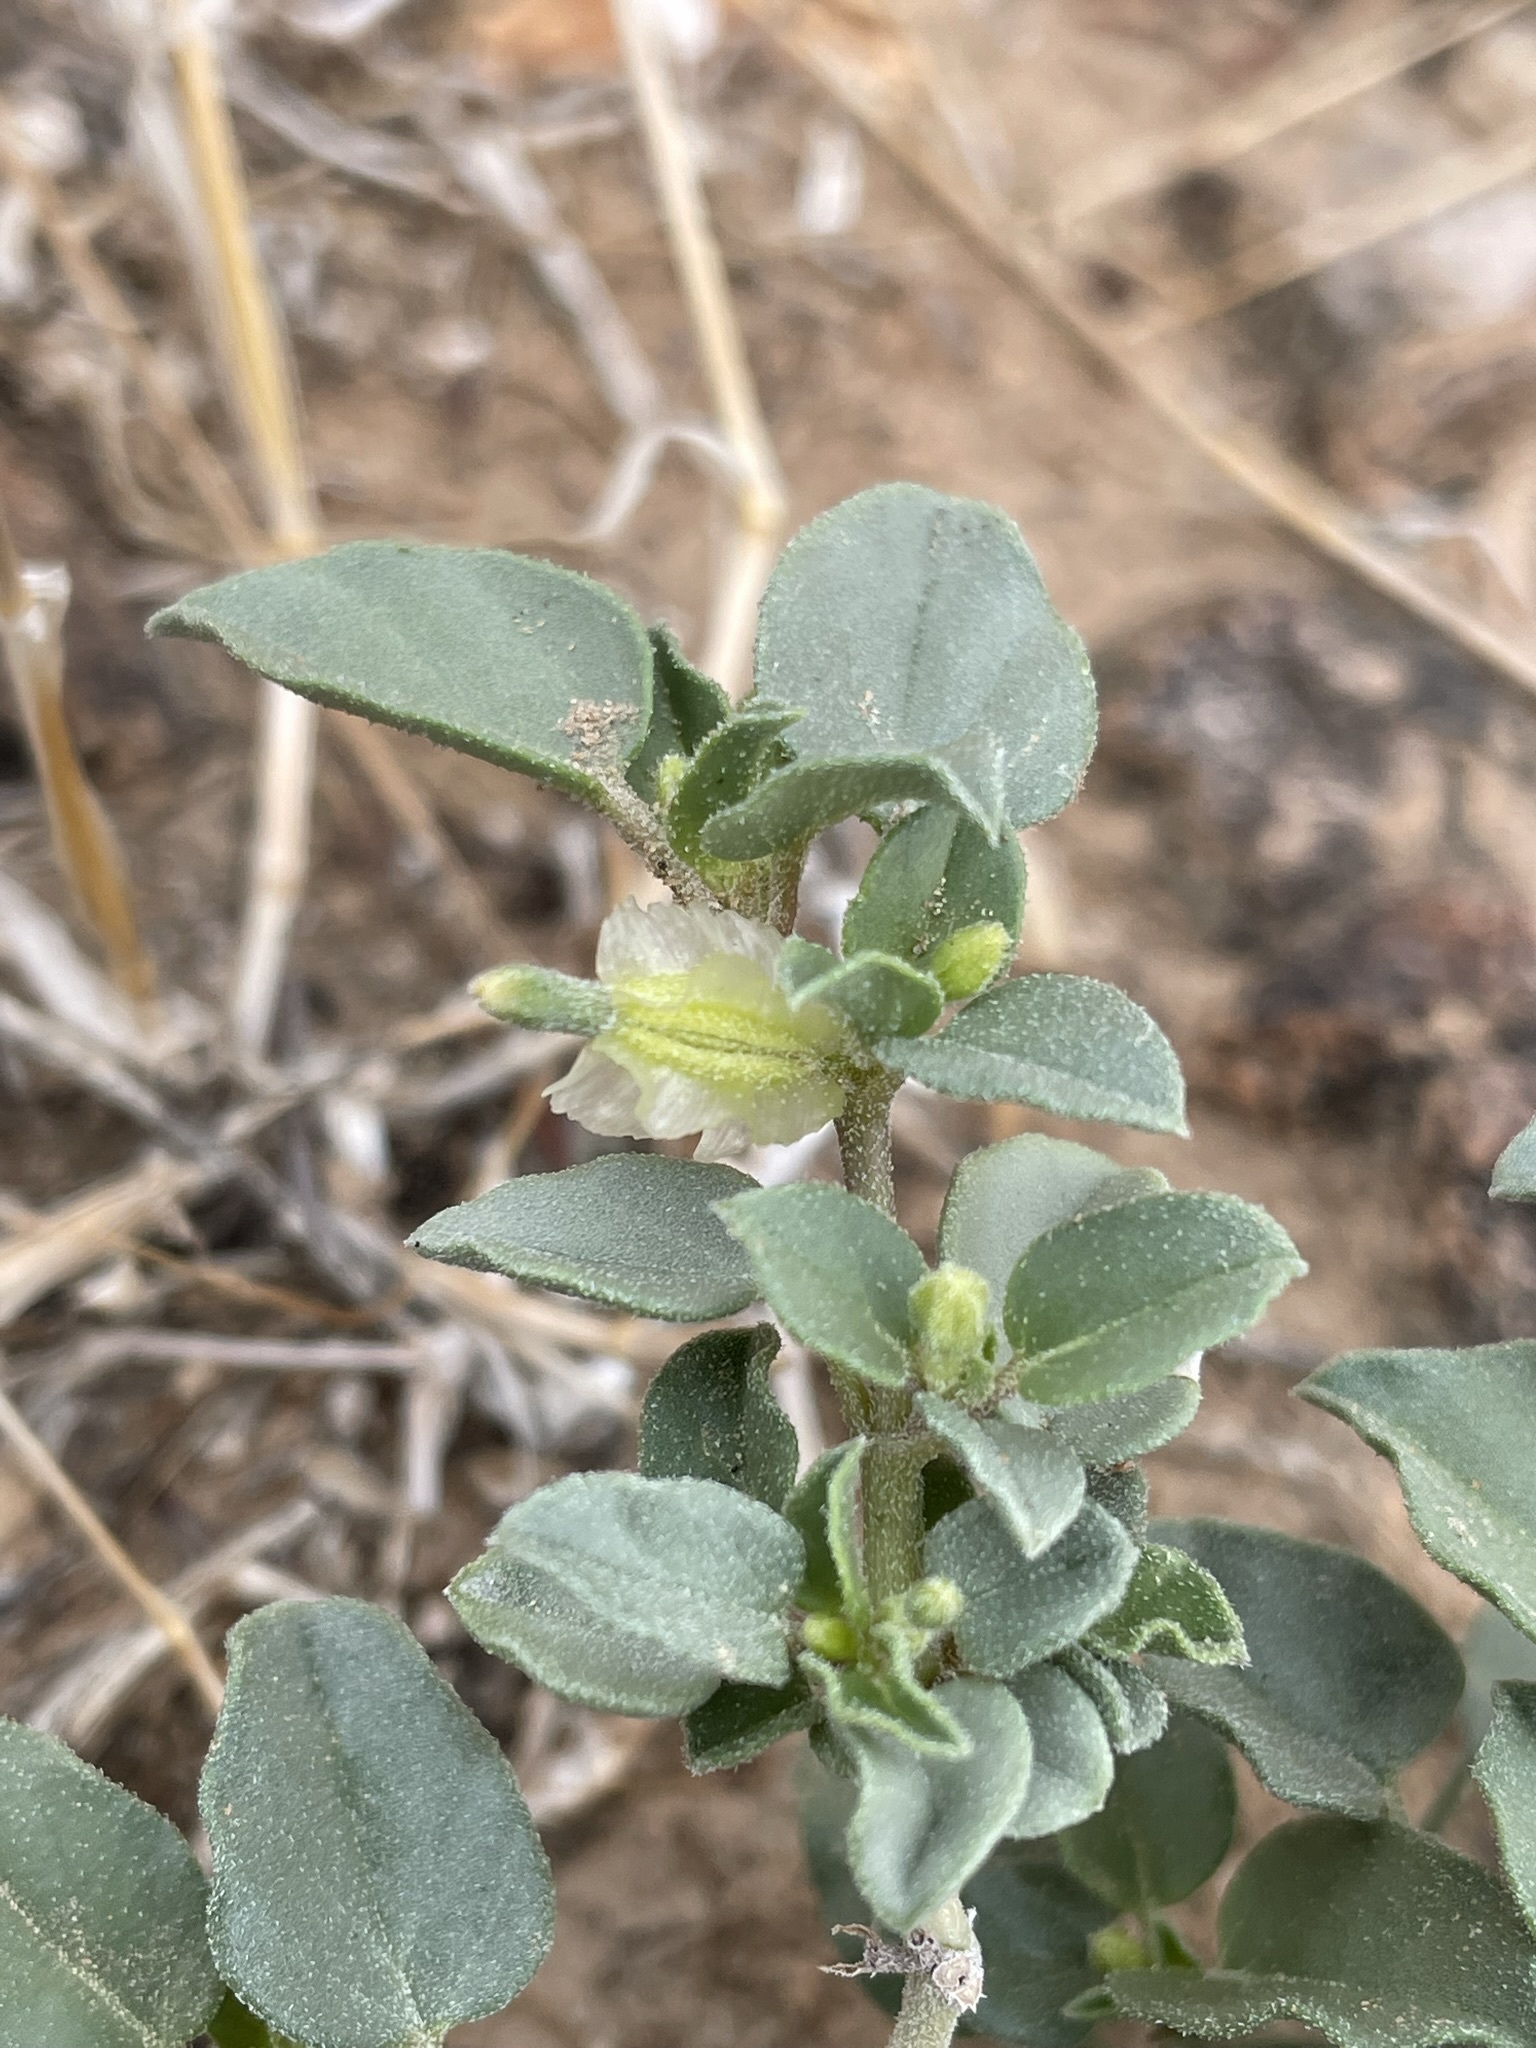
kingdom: Plantae
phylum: Tracheophyta
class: Magnoliopsida
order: Caryophyllales
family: Nyctaginaceae
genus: Acleisanthes
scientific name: Acleisanthes nevadensis
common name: Desert moonpod
